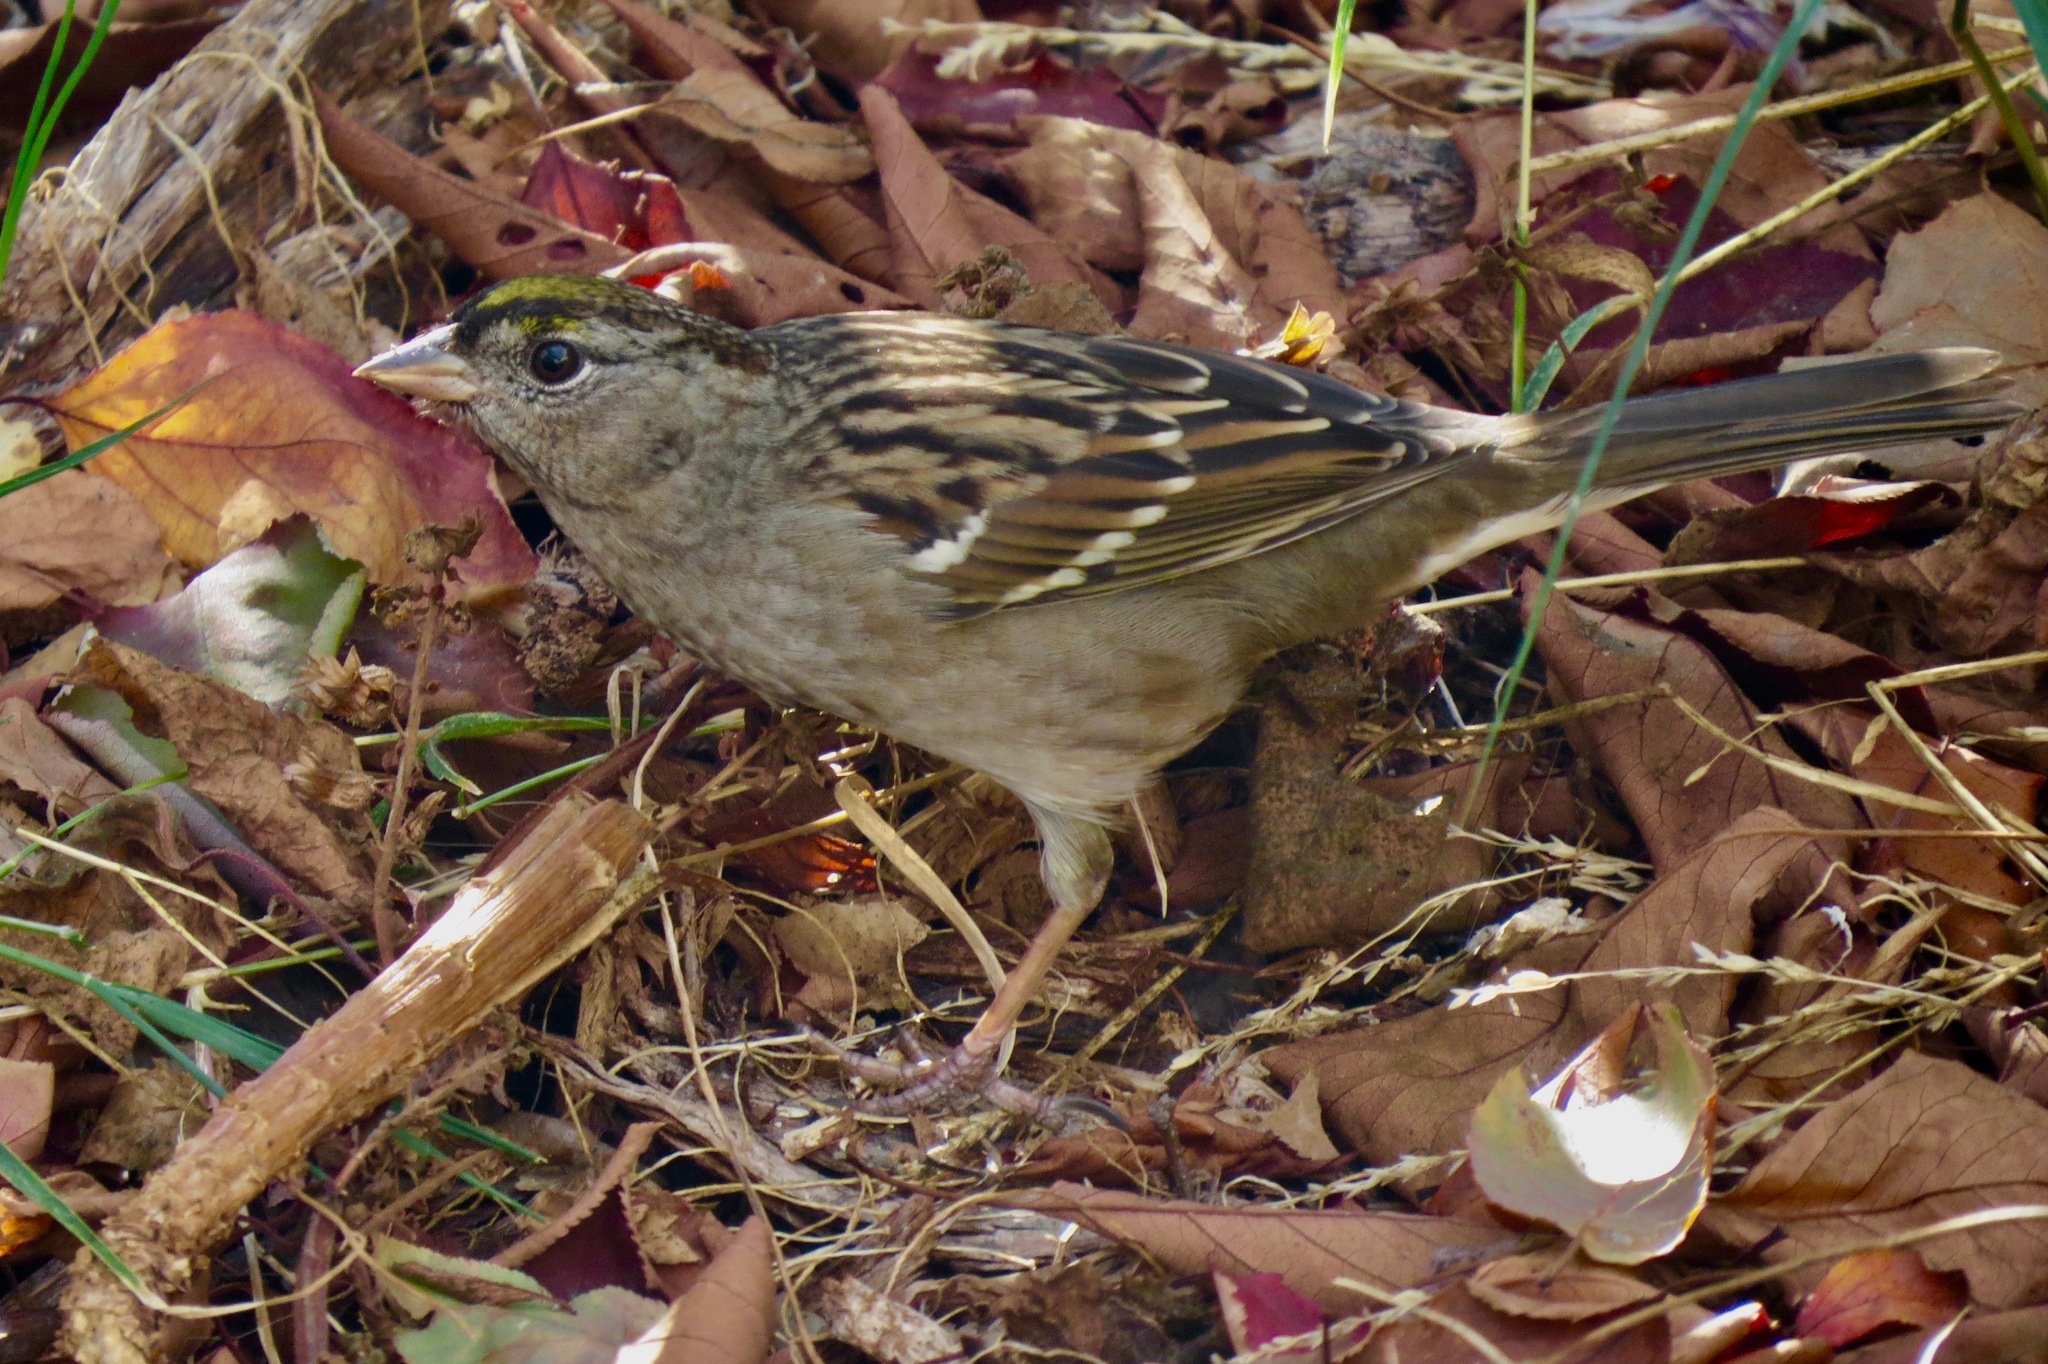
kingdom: Animalia
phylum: Chordata
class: Aves
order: Passeriformes
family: Passerellidae
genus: Zonotrichia
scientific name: Zonotrichia atricapilla
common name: Golden-crowned sparrow
